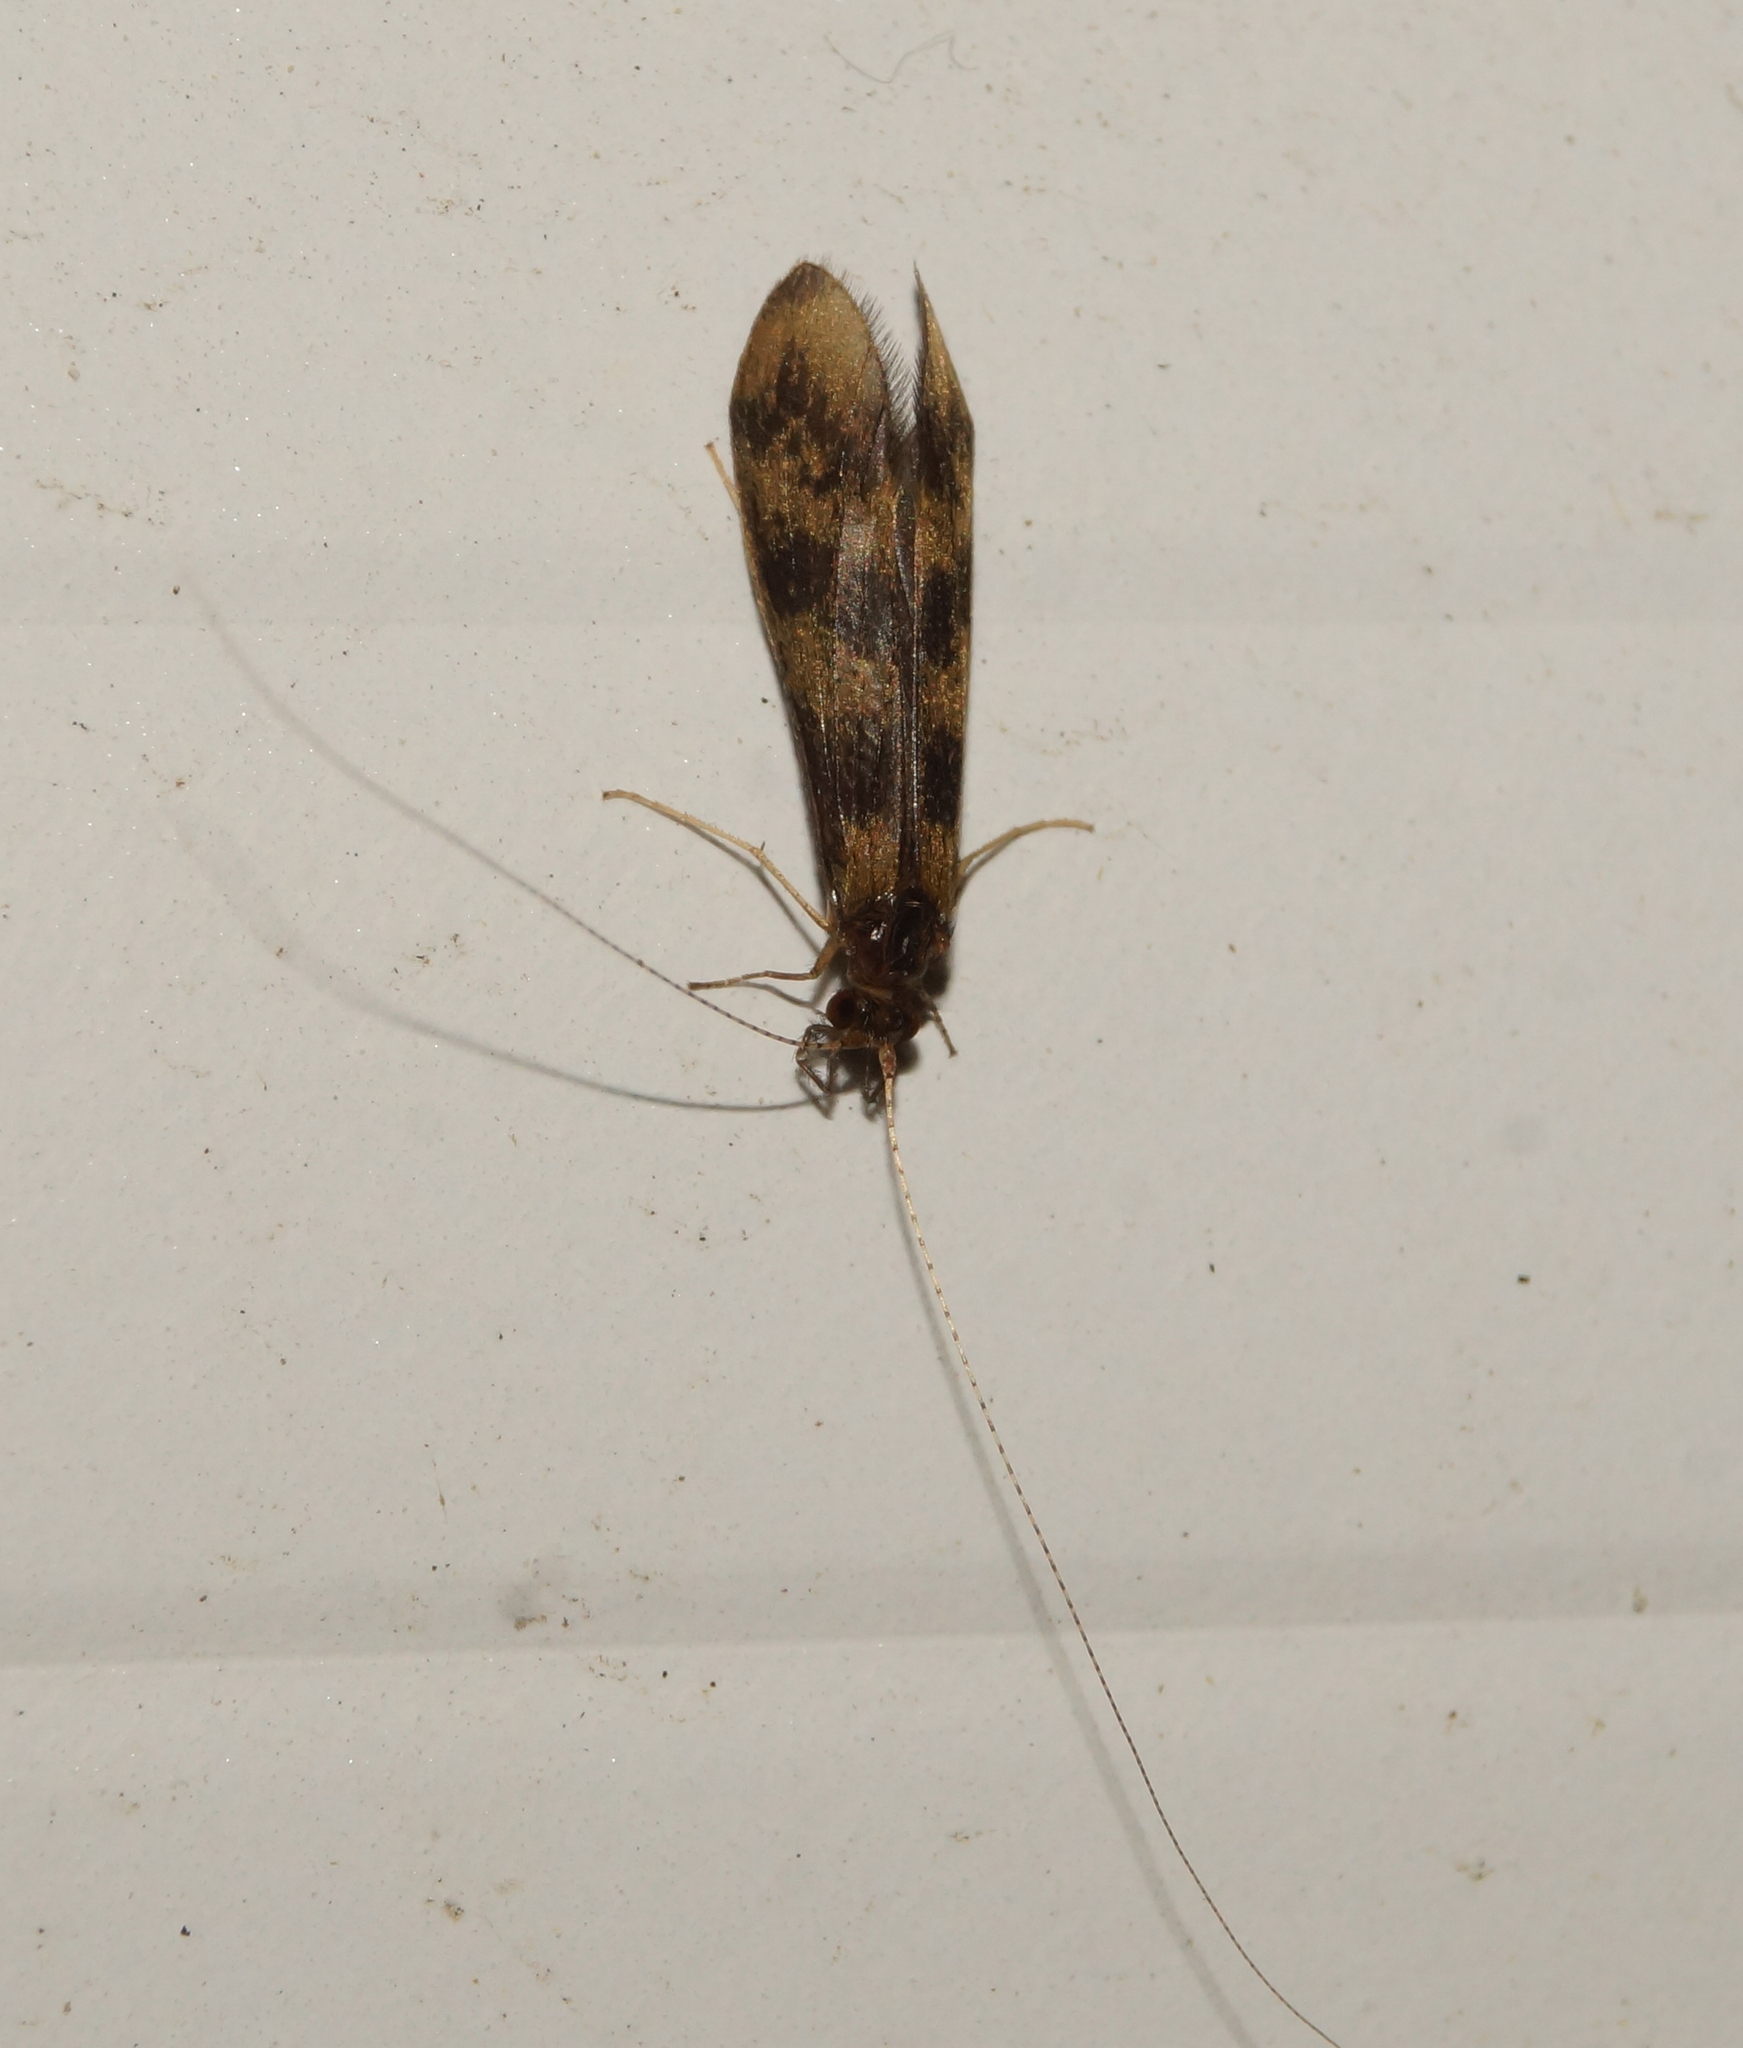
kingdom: Animalia
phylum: Arthropoda
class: Insecta
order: Trichoptera
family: Leptoceridae
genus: Mystacides
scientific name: Mystacides longicornis
